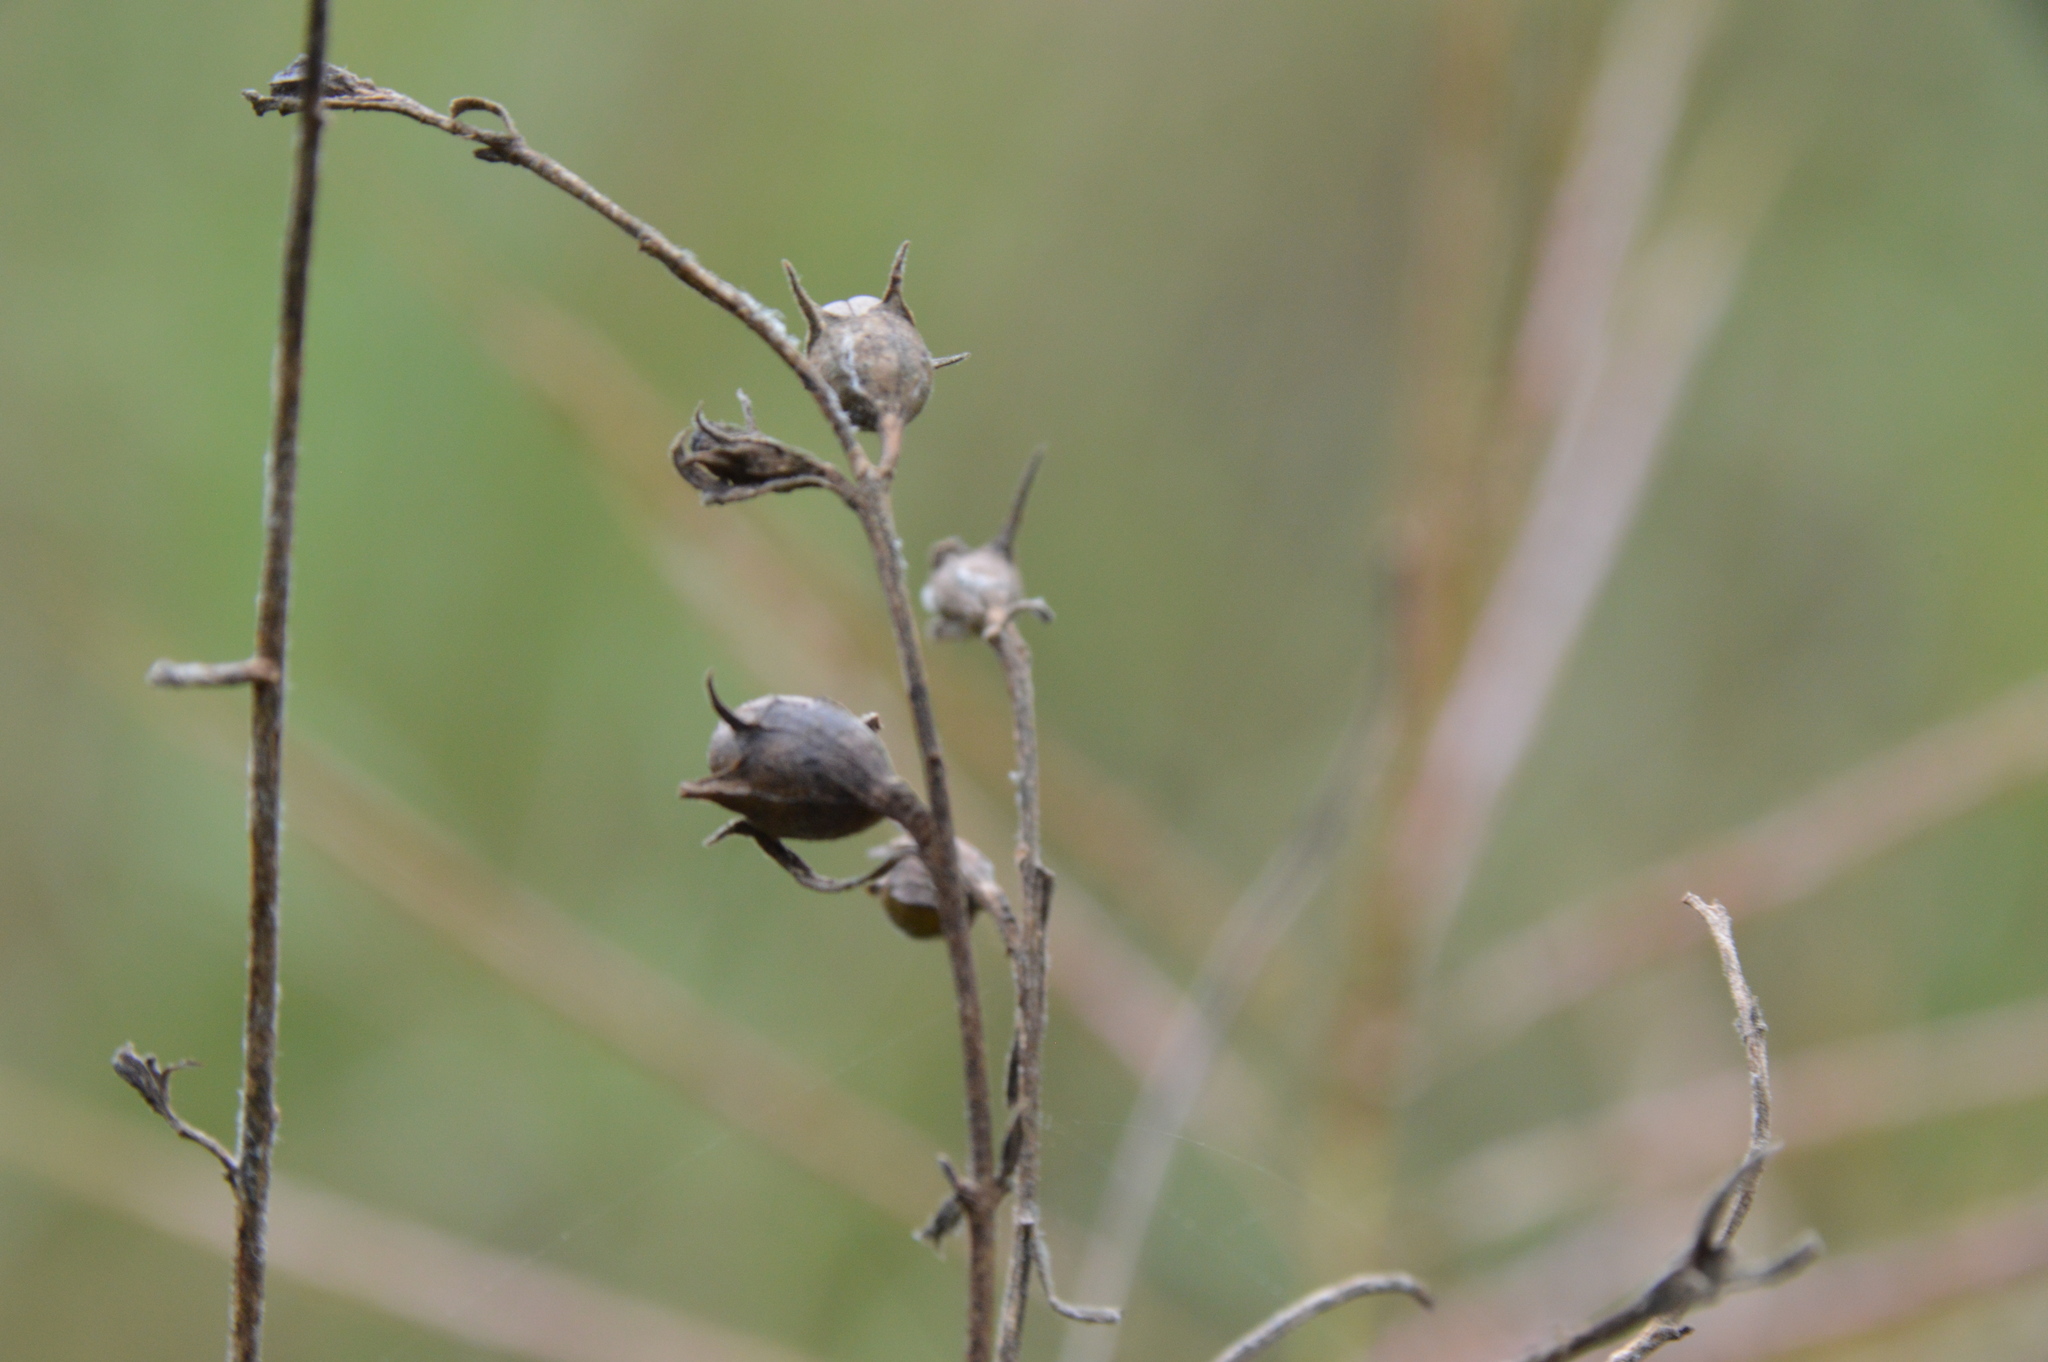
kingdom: Plantae
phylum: Tracheophyta
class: Magnoliopsida
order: Lamiales
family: Orobanchaceae
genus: Agalinis
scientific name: Agalinis heterophylla
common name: Prairie agalinis
